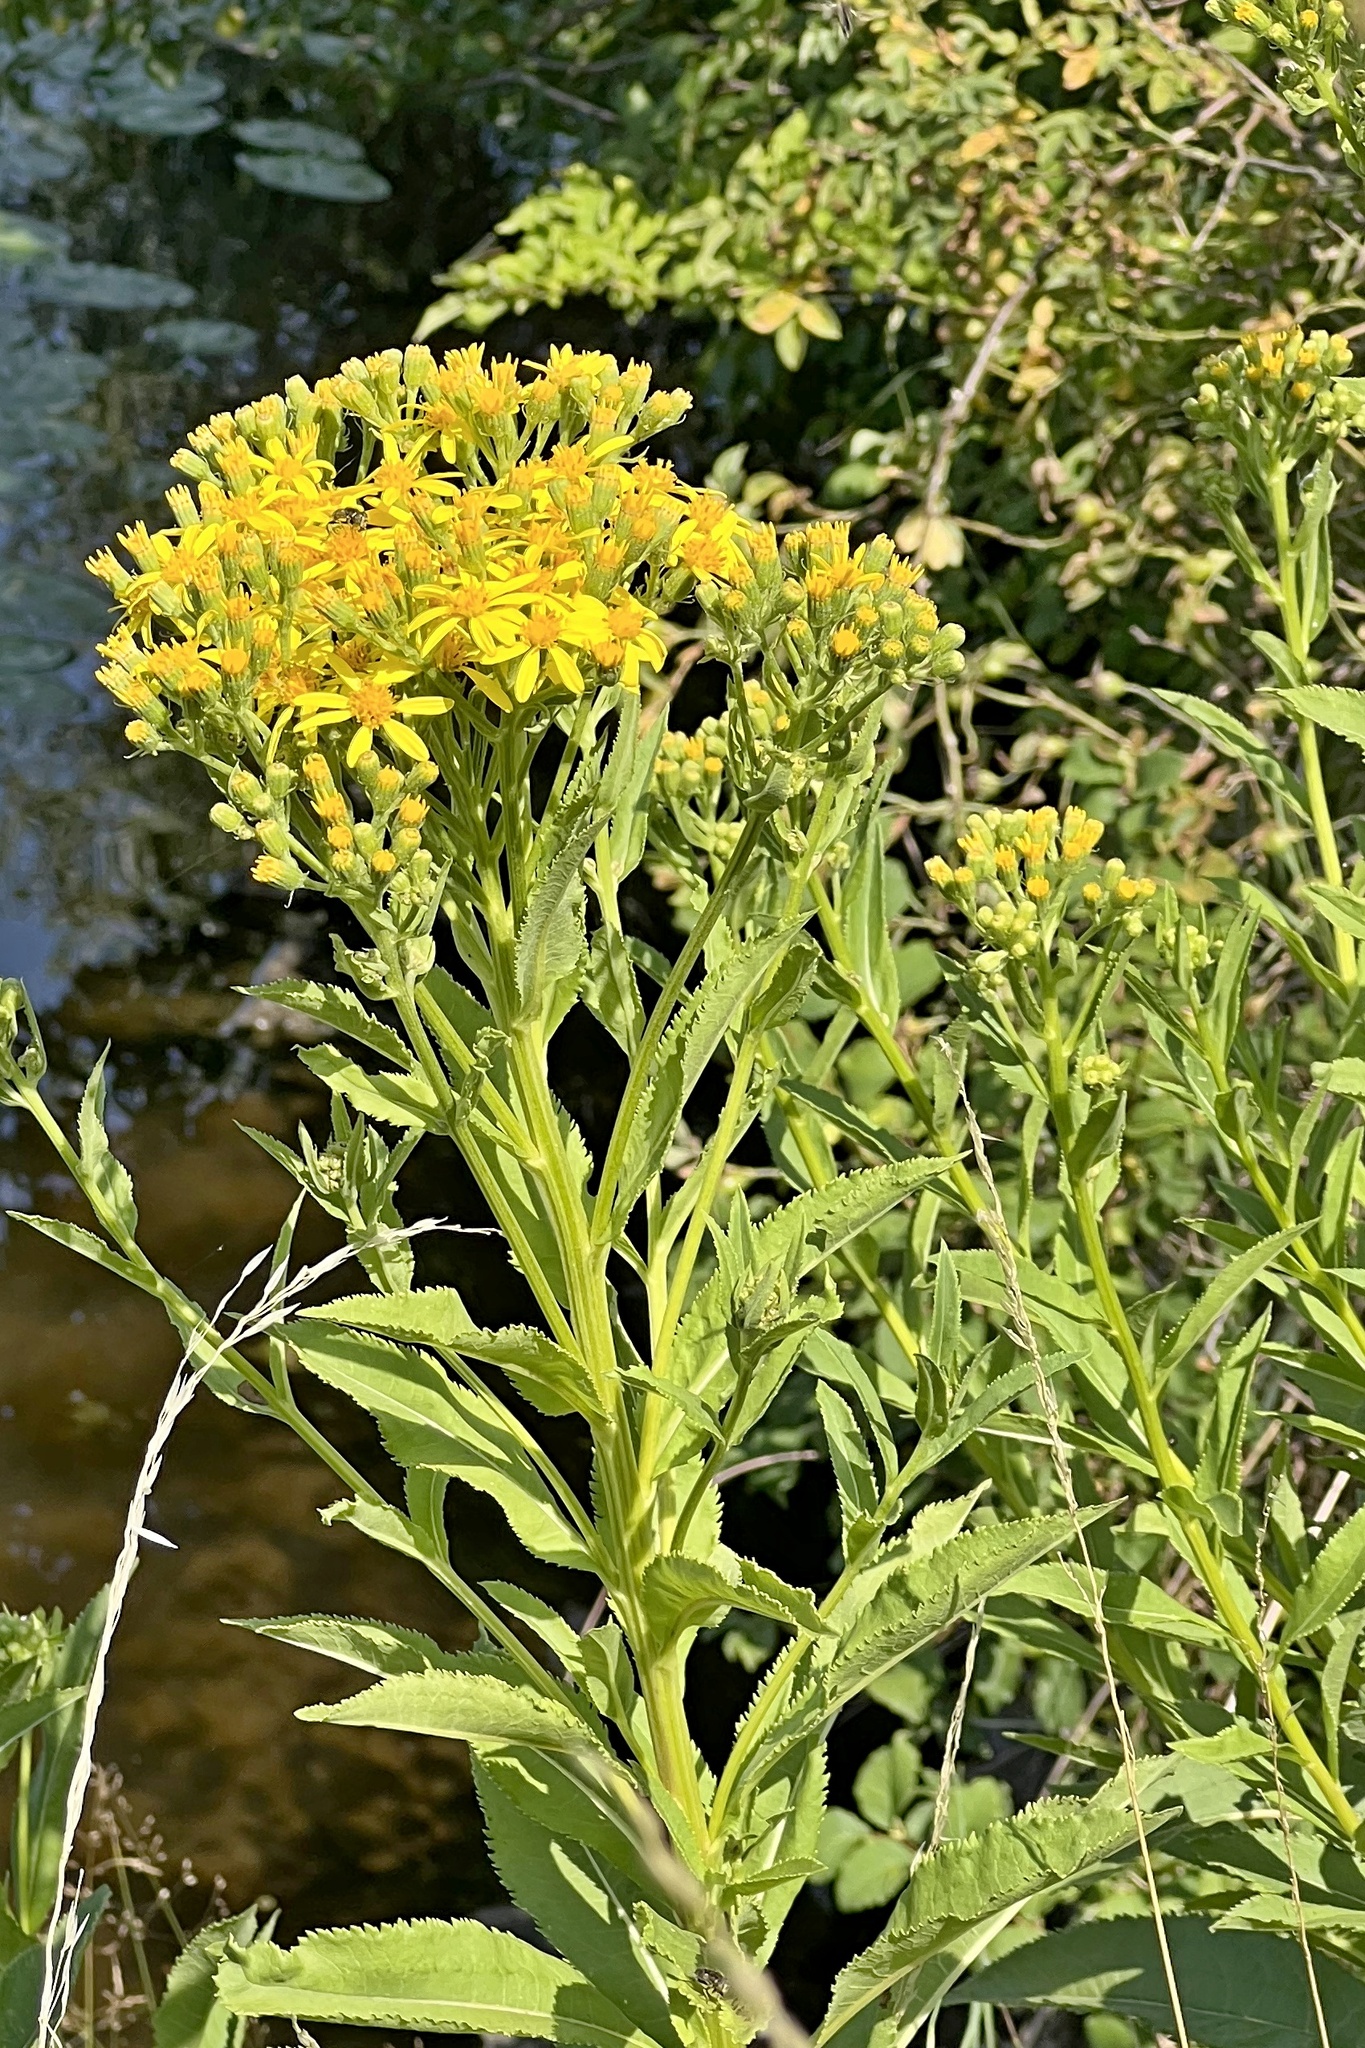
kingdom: Plantae
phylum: Tracheophyta
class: Magnoliopsida
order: Asterales
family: Asteraceae
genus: Senecio
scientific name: Senecio sarracenicus
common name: Broad-leaved ragwort
